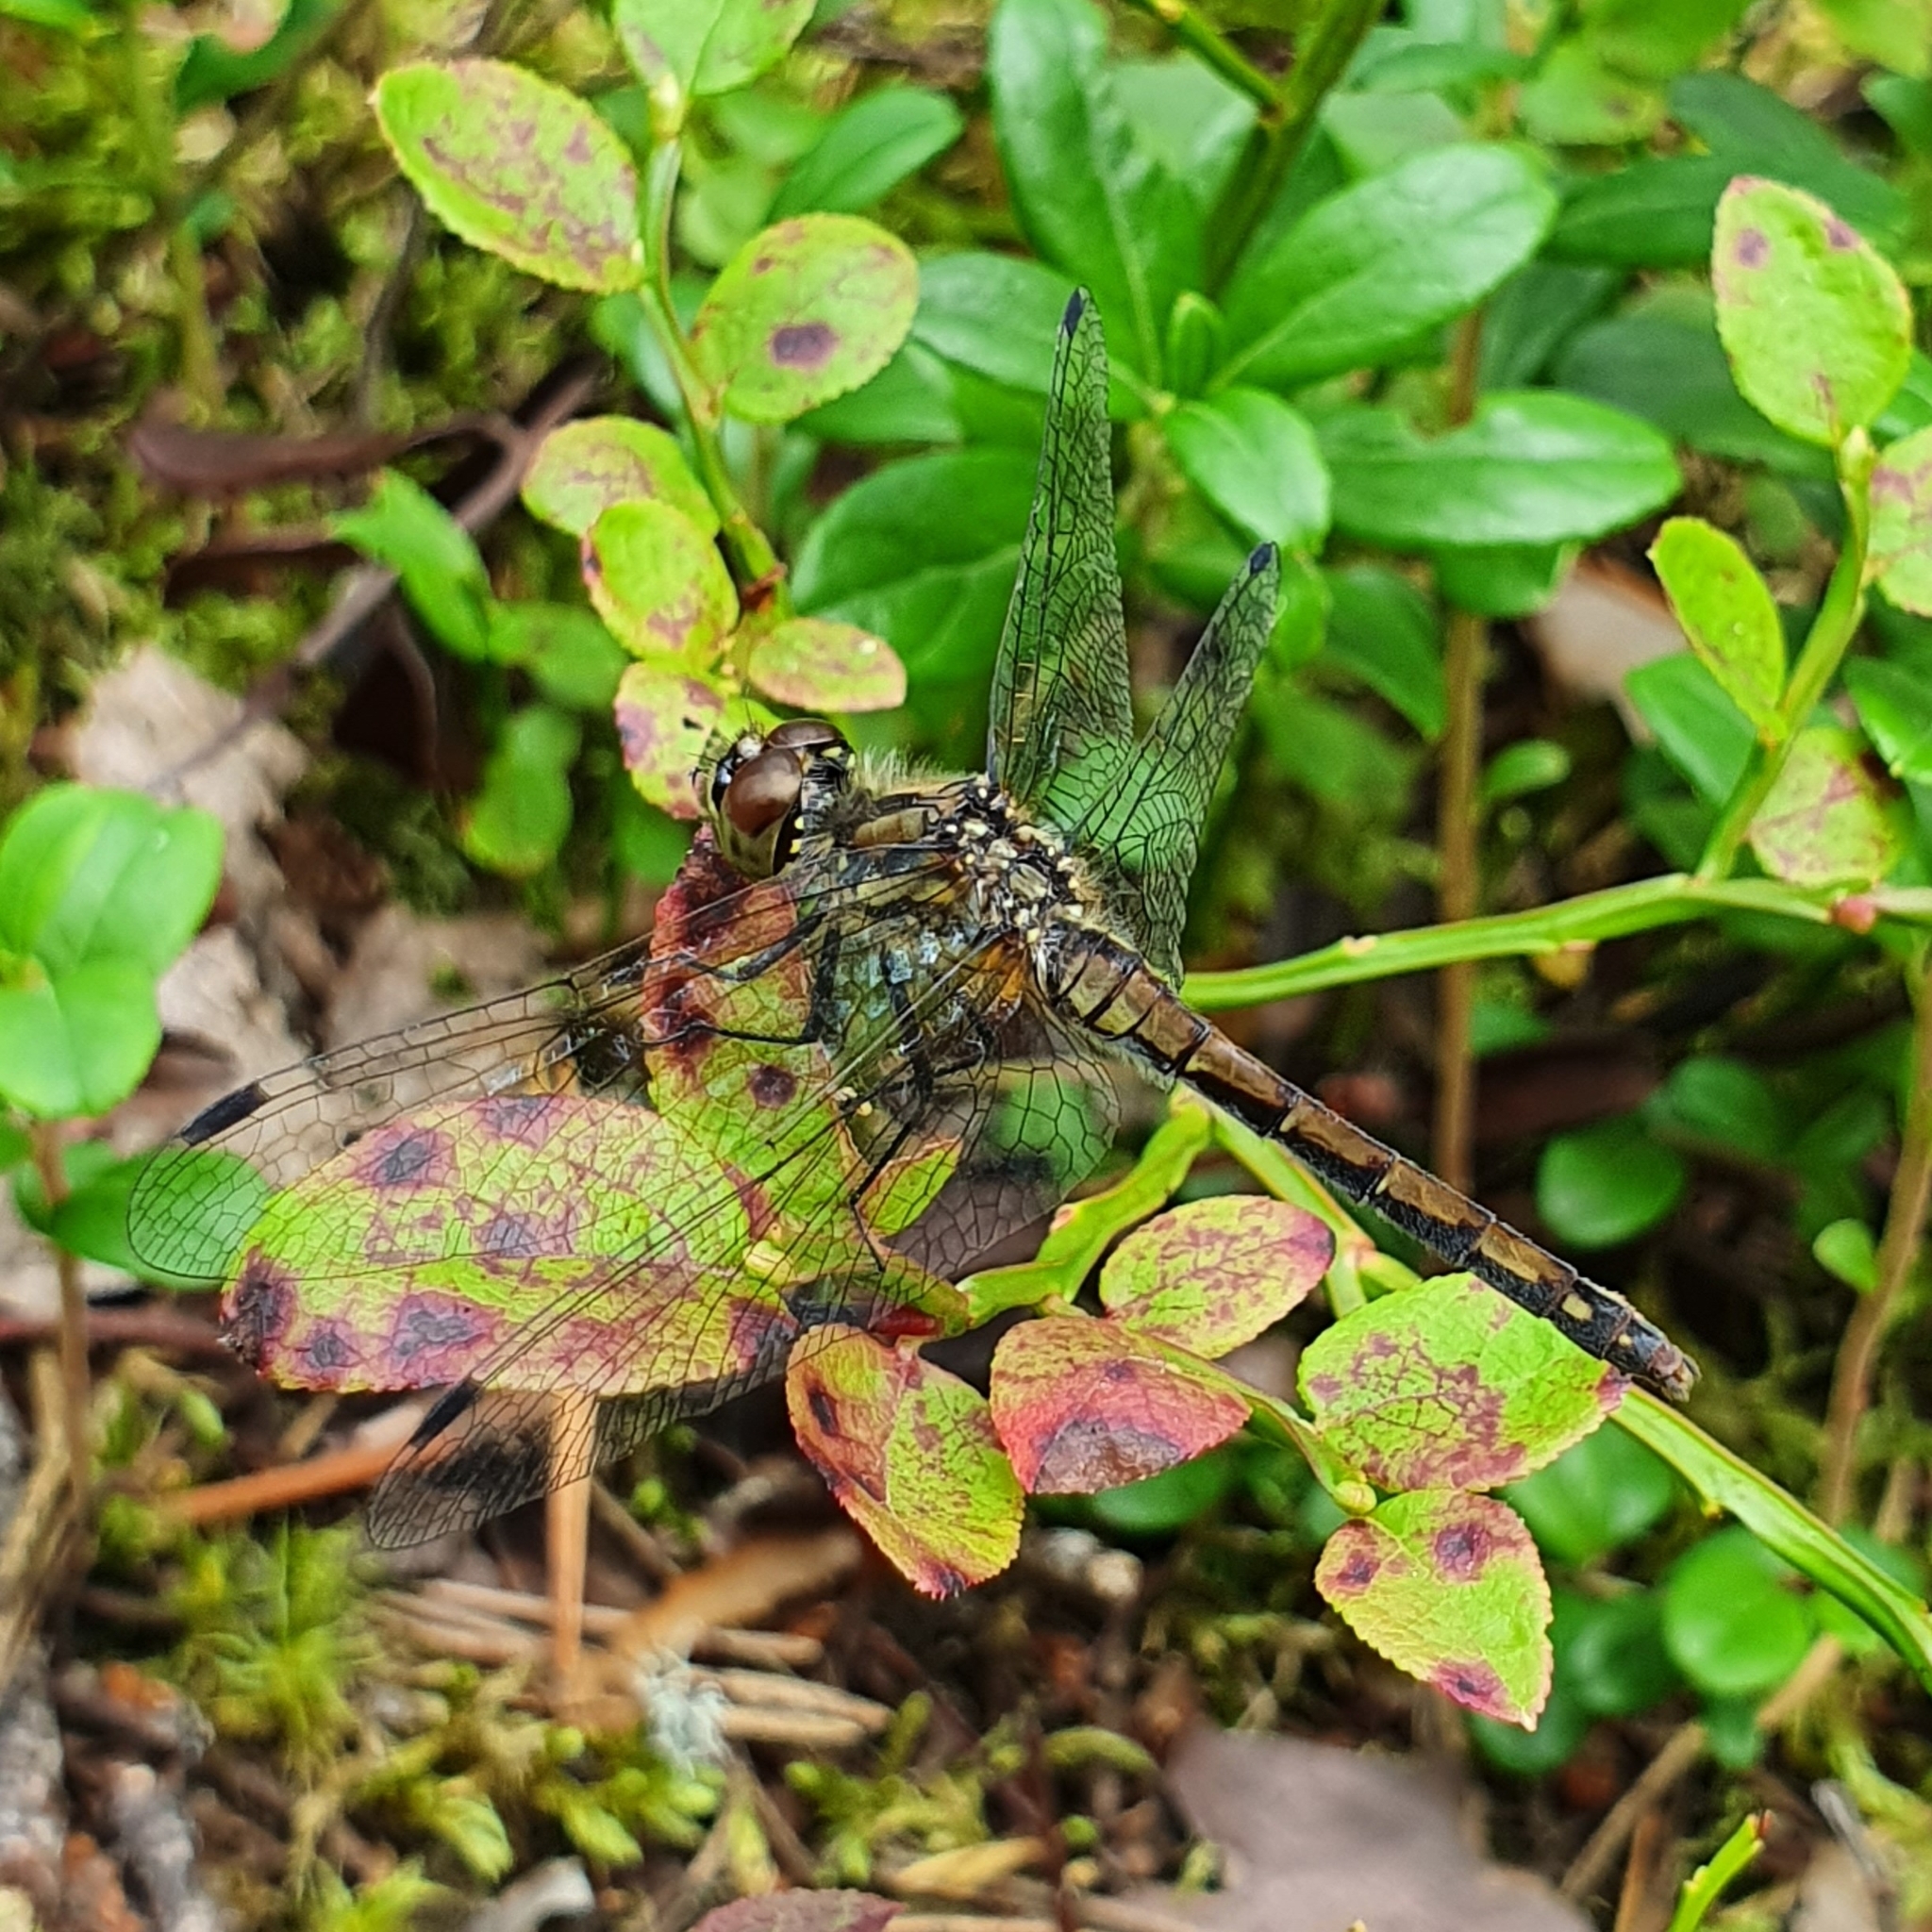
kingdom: Animalia
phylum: Arthropoda
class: Insecta
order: Odonata
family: Libellulidae
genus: Sympetrum
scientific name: Sympetrum danae
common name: Black darter
